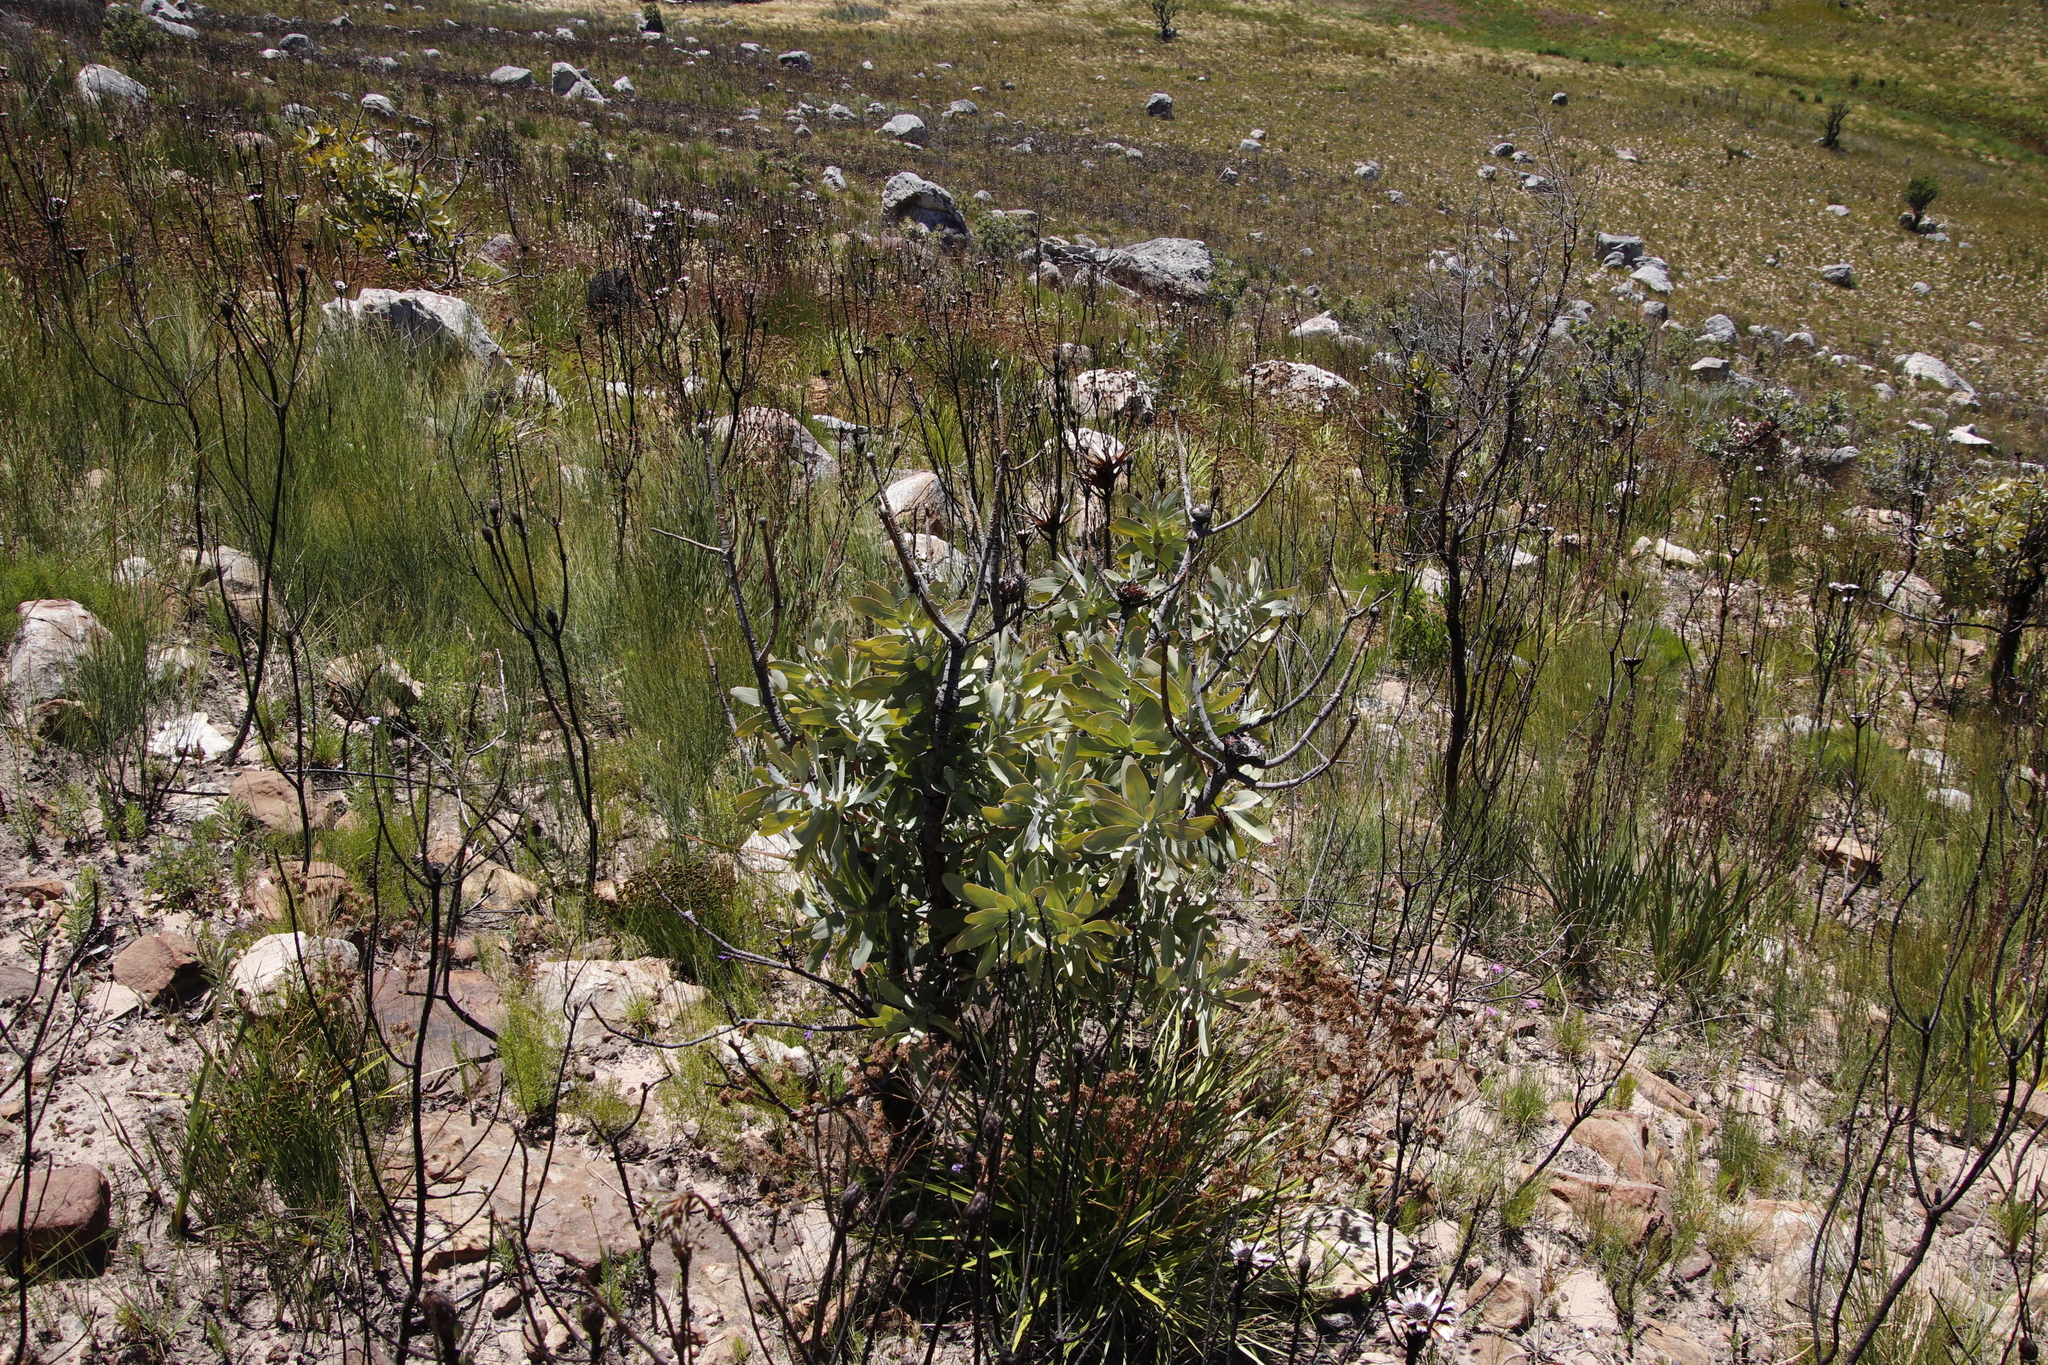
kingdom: Plantae
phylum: Tracheophyta
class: Magnoliopsida
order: Proteales
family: Proteaceae
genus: Protea
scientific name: Protea nitida
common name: Tree protea
